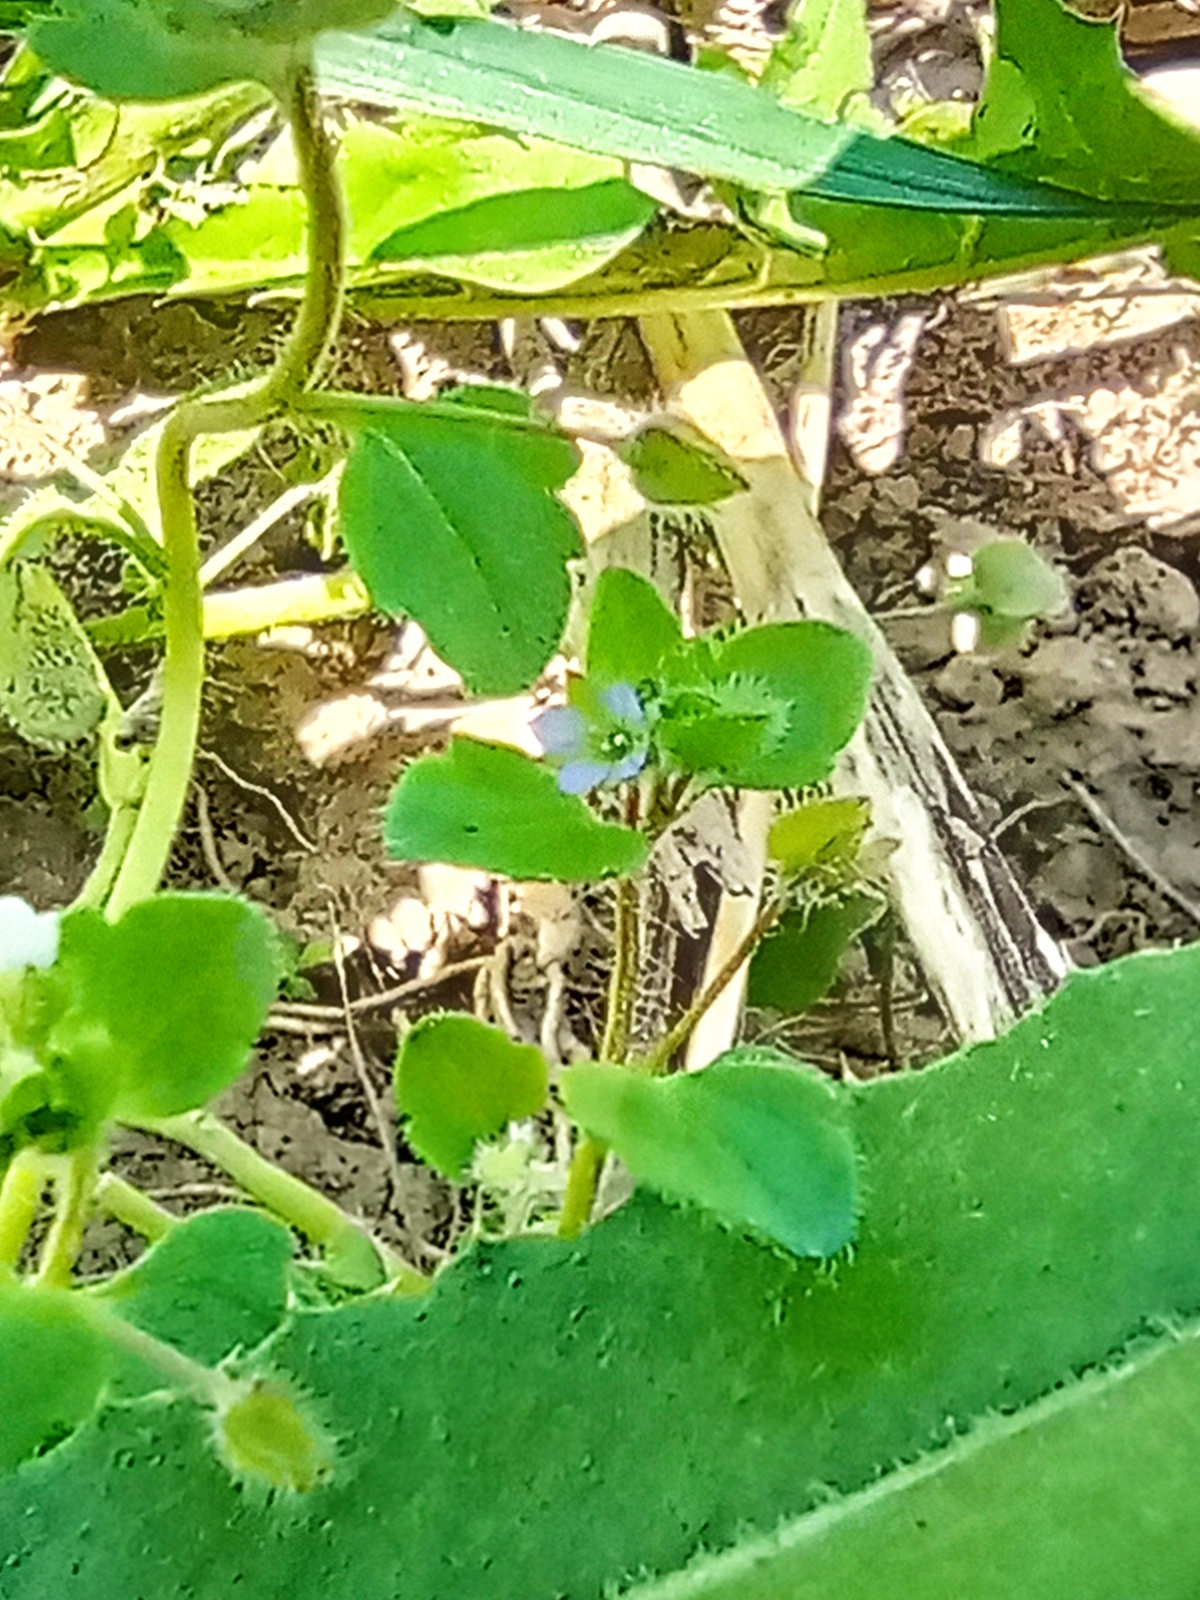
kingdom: Plantae
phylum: Tracheophyta
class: Magnoliopsida
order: Lamiales
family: Plantaginaceae
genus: Veronica
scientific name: Veronica sublobata
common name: False ivy-leaved speedwell
